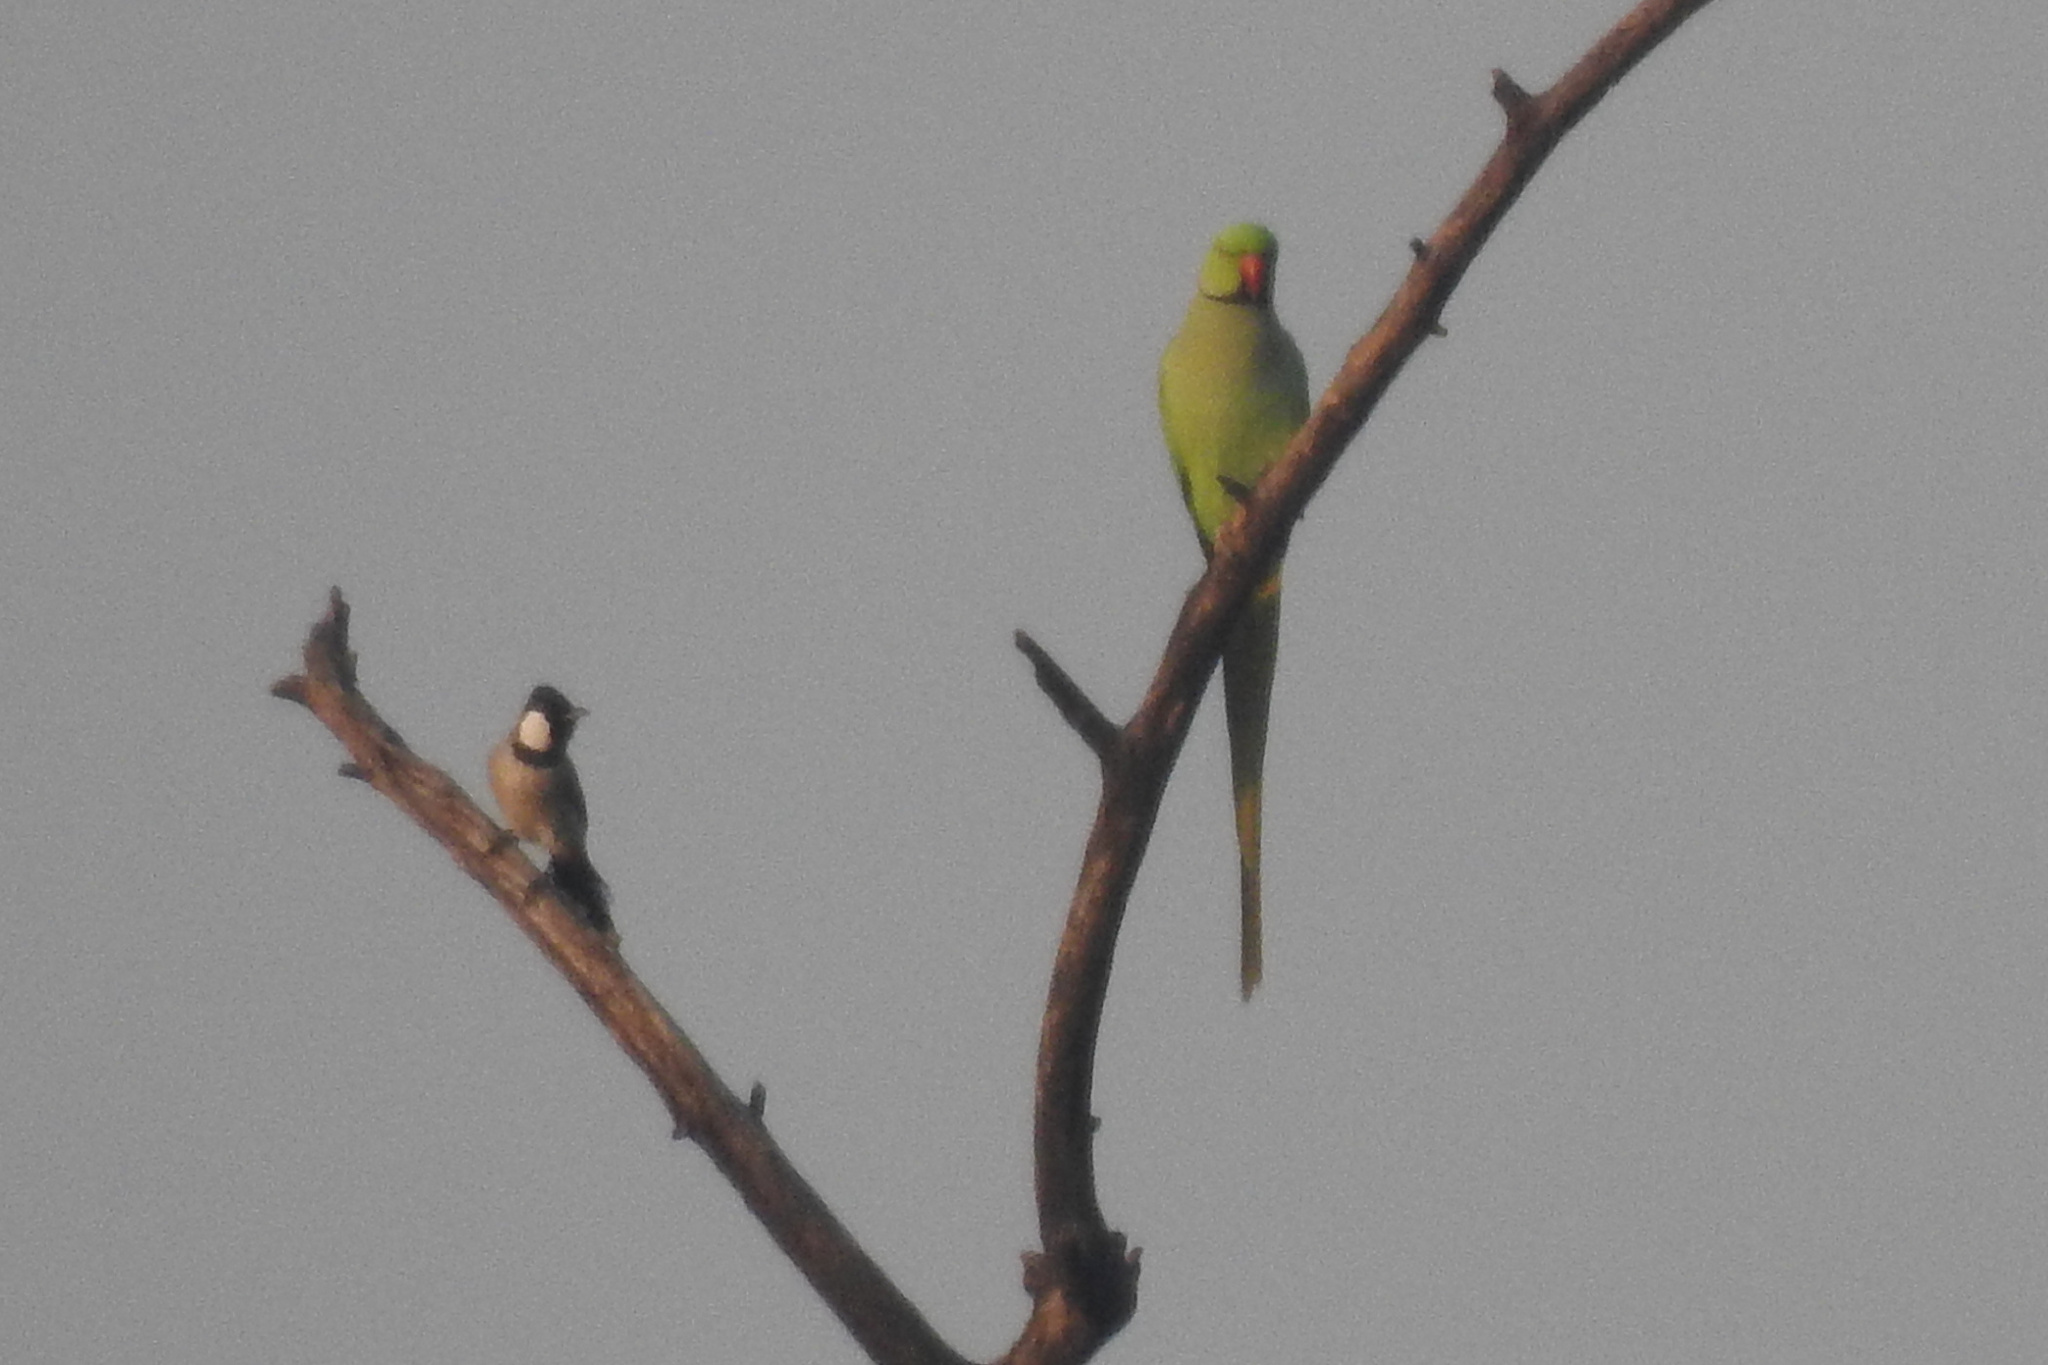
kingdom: Animalia
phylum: Chordata
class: Aves
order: Psittaciformes
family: Psittacidae
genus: Psittacula
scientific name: Psittacula krameri
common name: Rose-ringed parakeet
